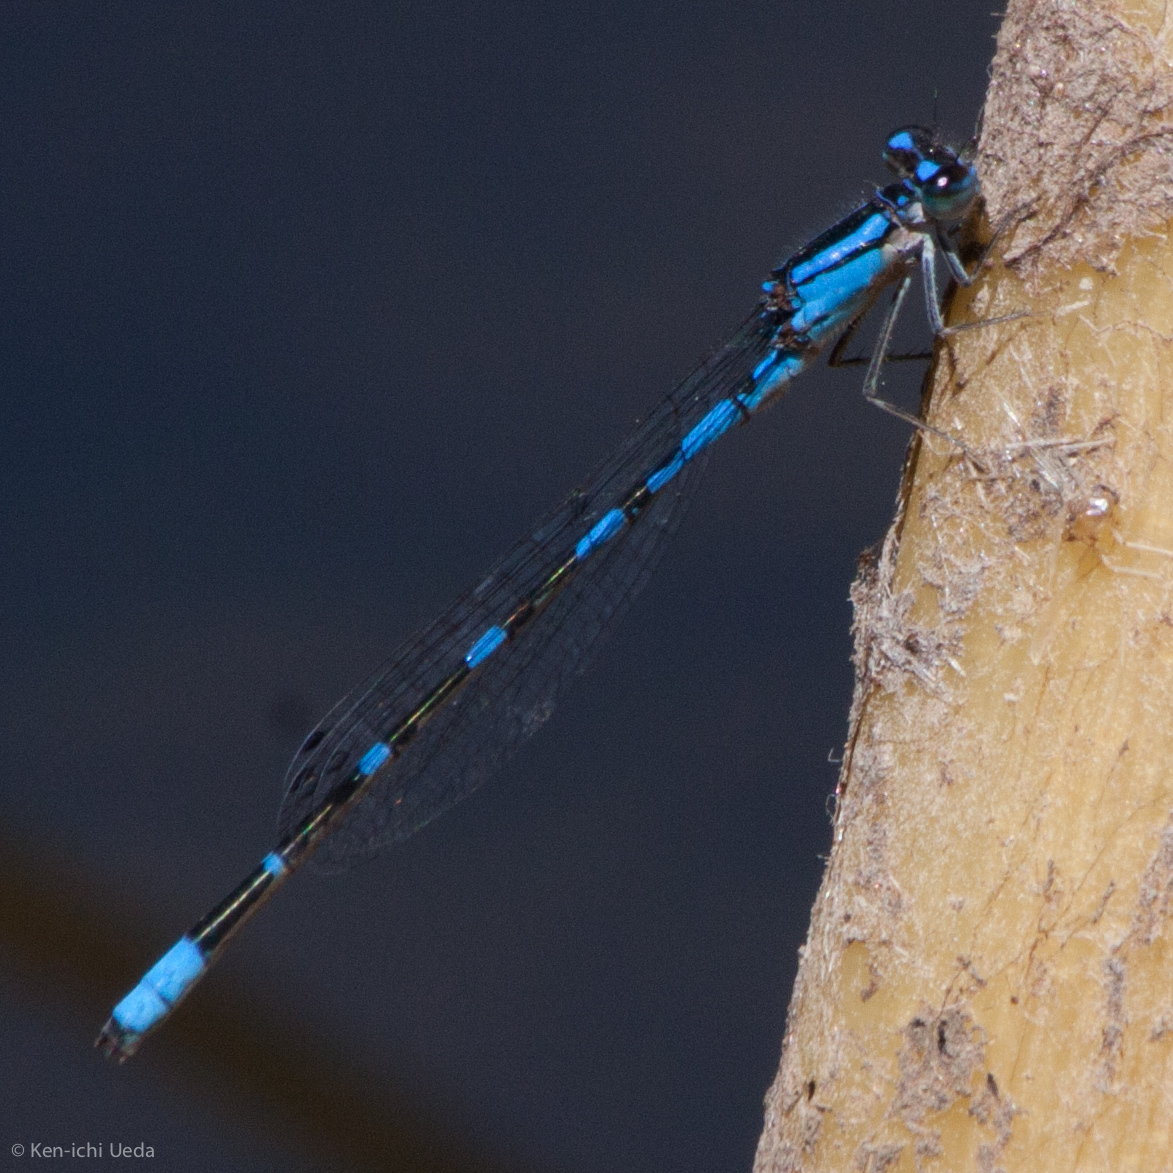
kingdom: Animalia
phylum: Arthropoda
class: Insecta
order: Odonata
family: Coenagrionidae
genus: Enallagma
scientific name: Enallagma praevarum
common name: Arroyo bluet
